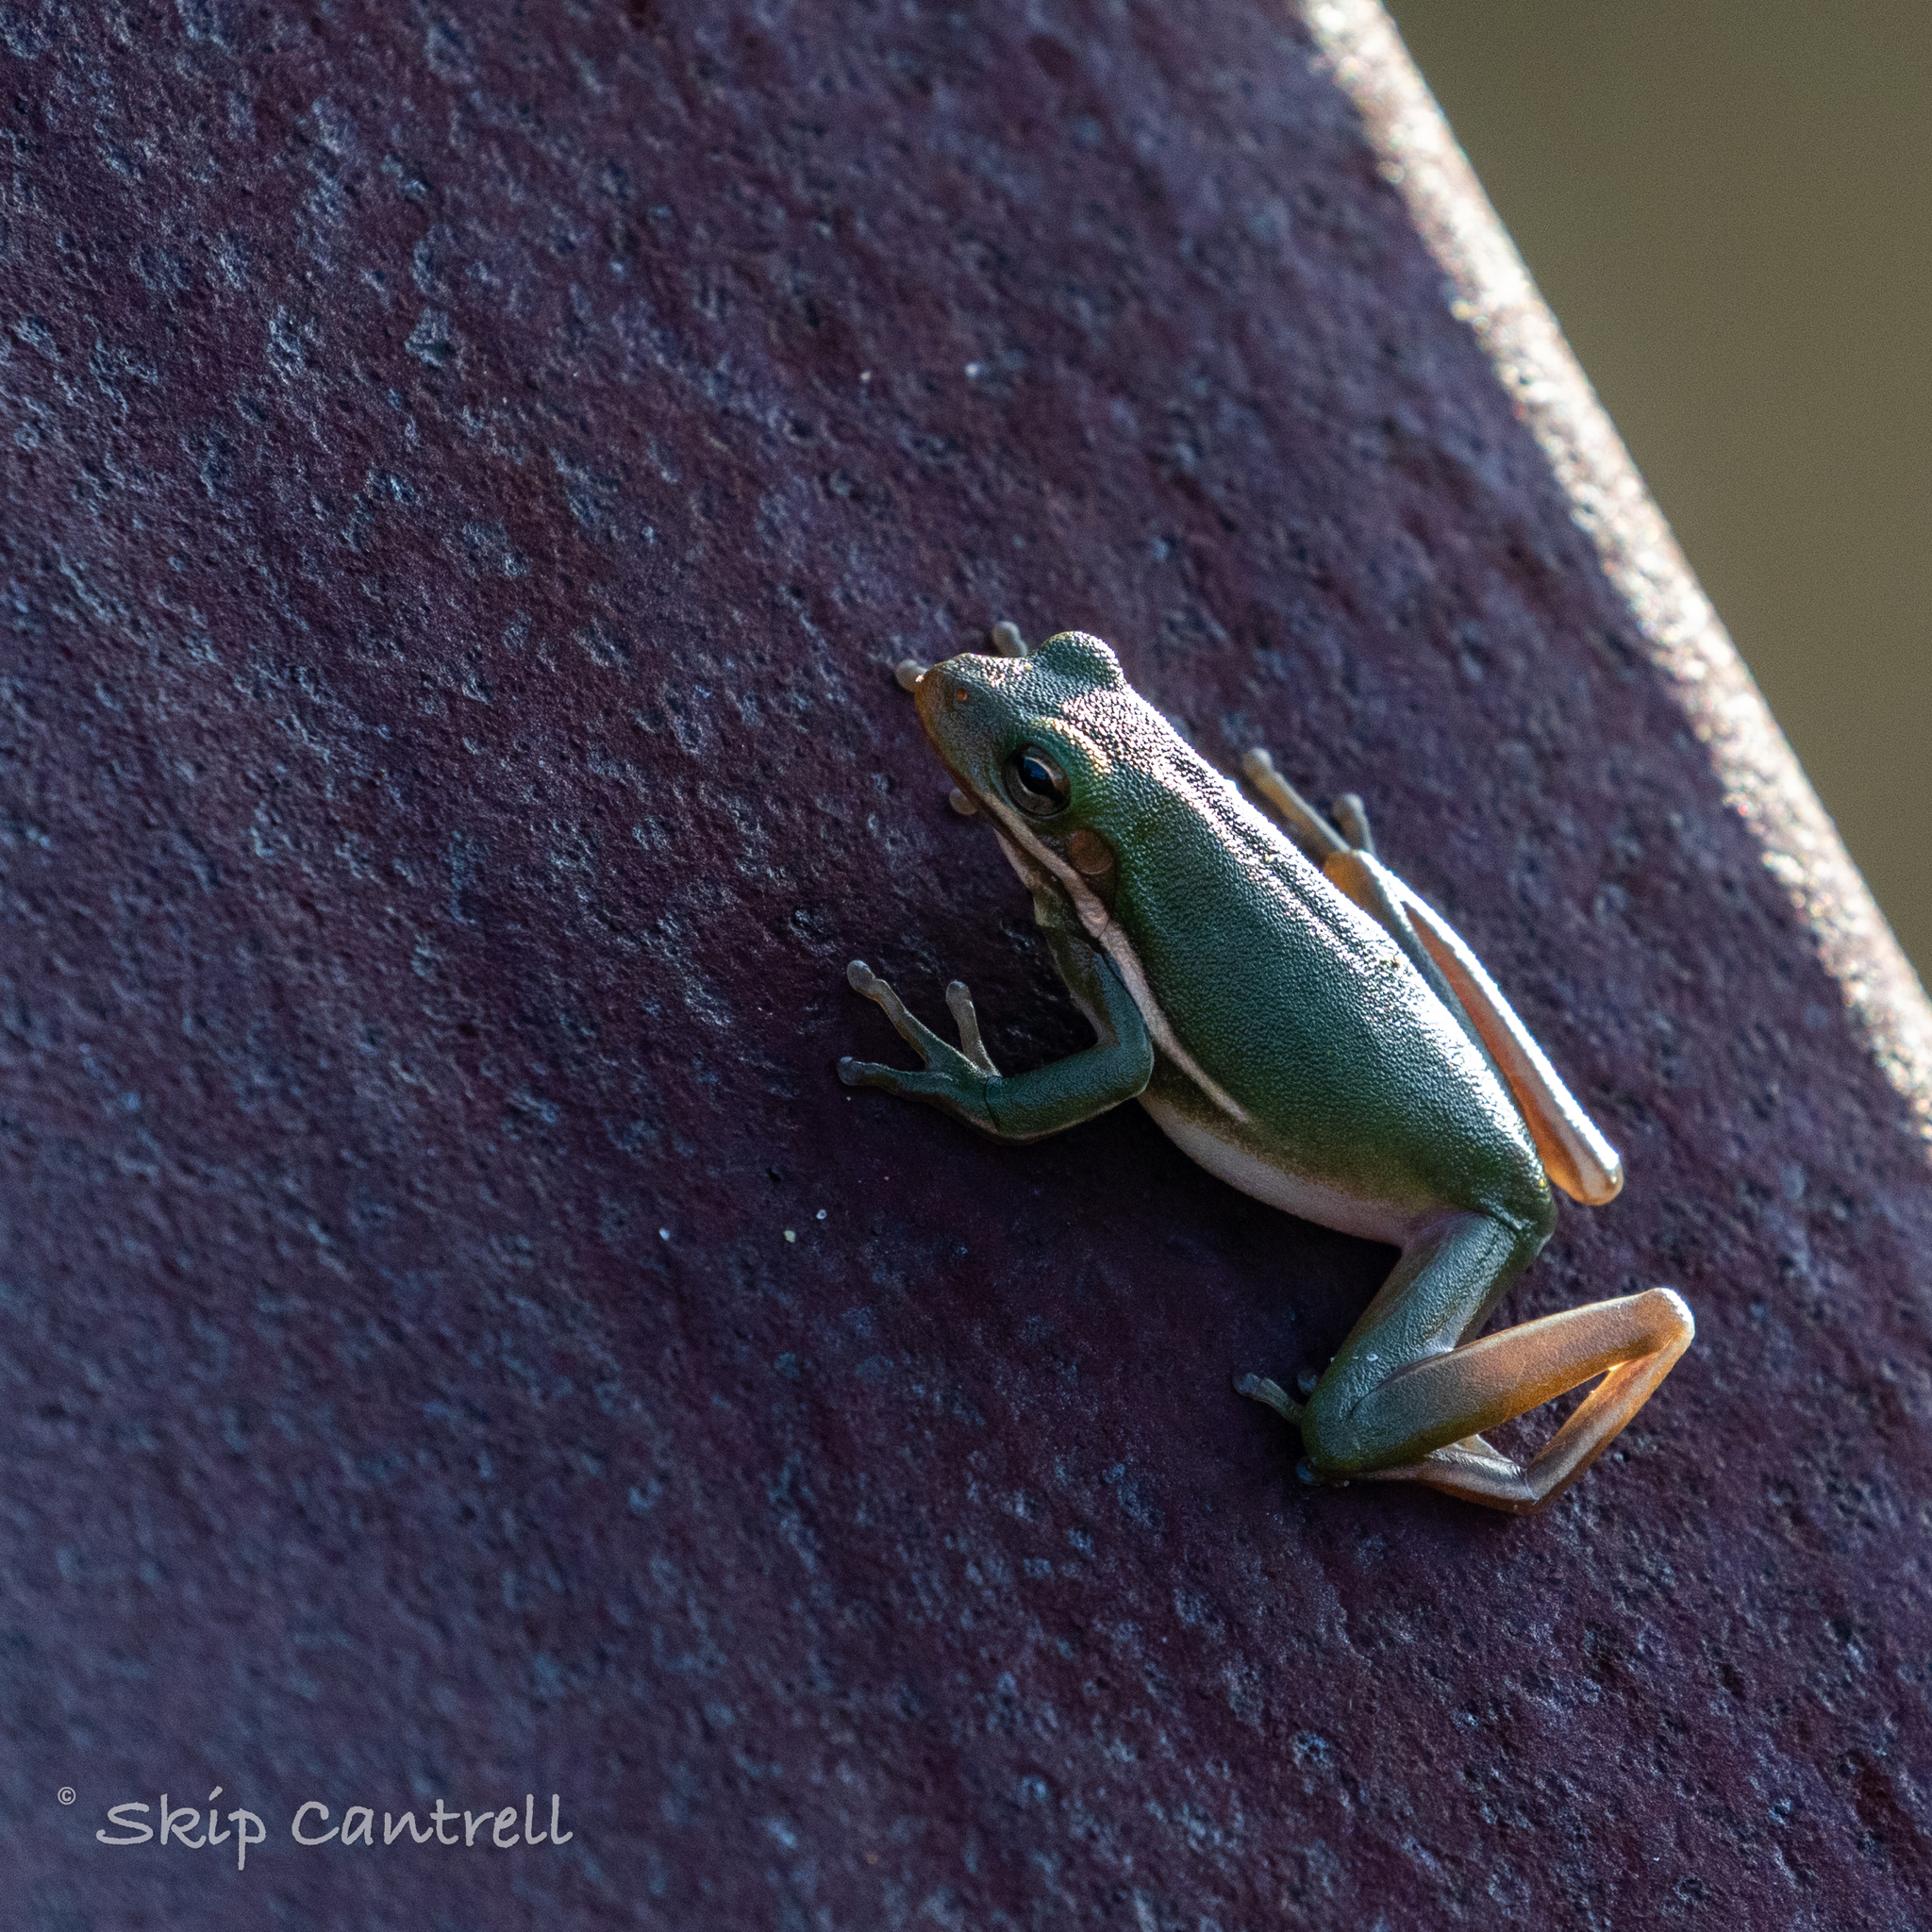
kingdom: Animalia
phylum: Chordata
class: Amphibia
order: Anura
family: Hylidae
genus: Dryophytes
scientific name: Dryophytes cinereus
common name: Green treefrog
